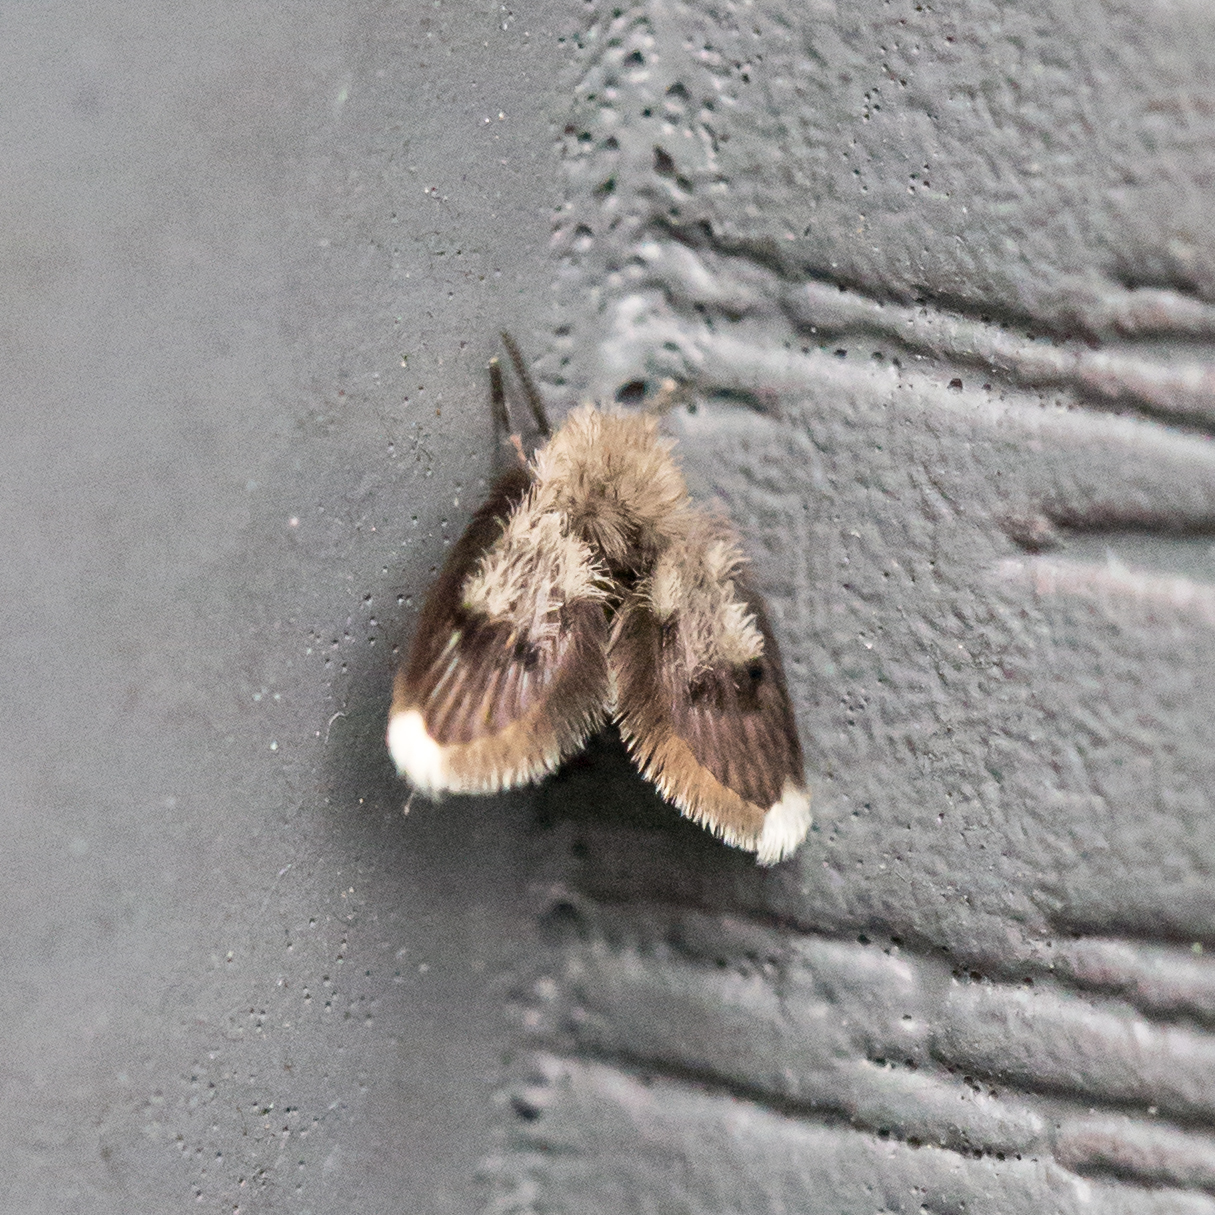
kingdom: Animalia
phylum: Arthropoda
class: Insecta
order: Diptera
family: Psychodidae
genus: Lepiseodina
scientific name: Lepiseodina
